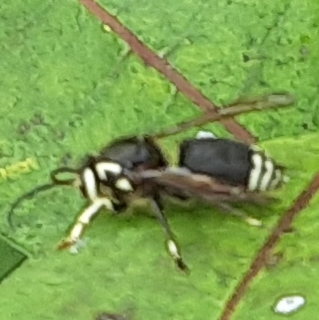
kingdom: Animalia
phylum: Arthropoda
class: Insecta
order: Hymenoptera
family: Vespidae
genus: Dolichovespula
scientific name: Dolichovespula maculata
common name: Bald-faced hornet
